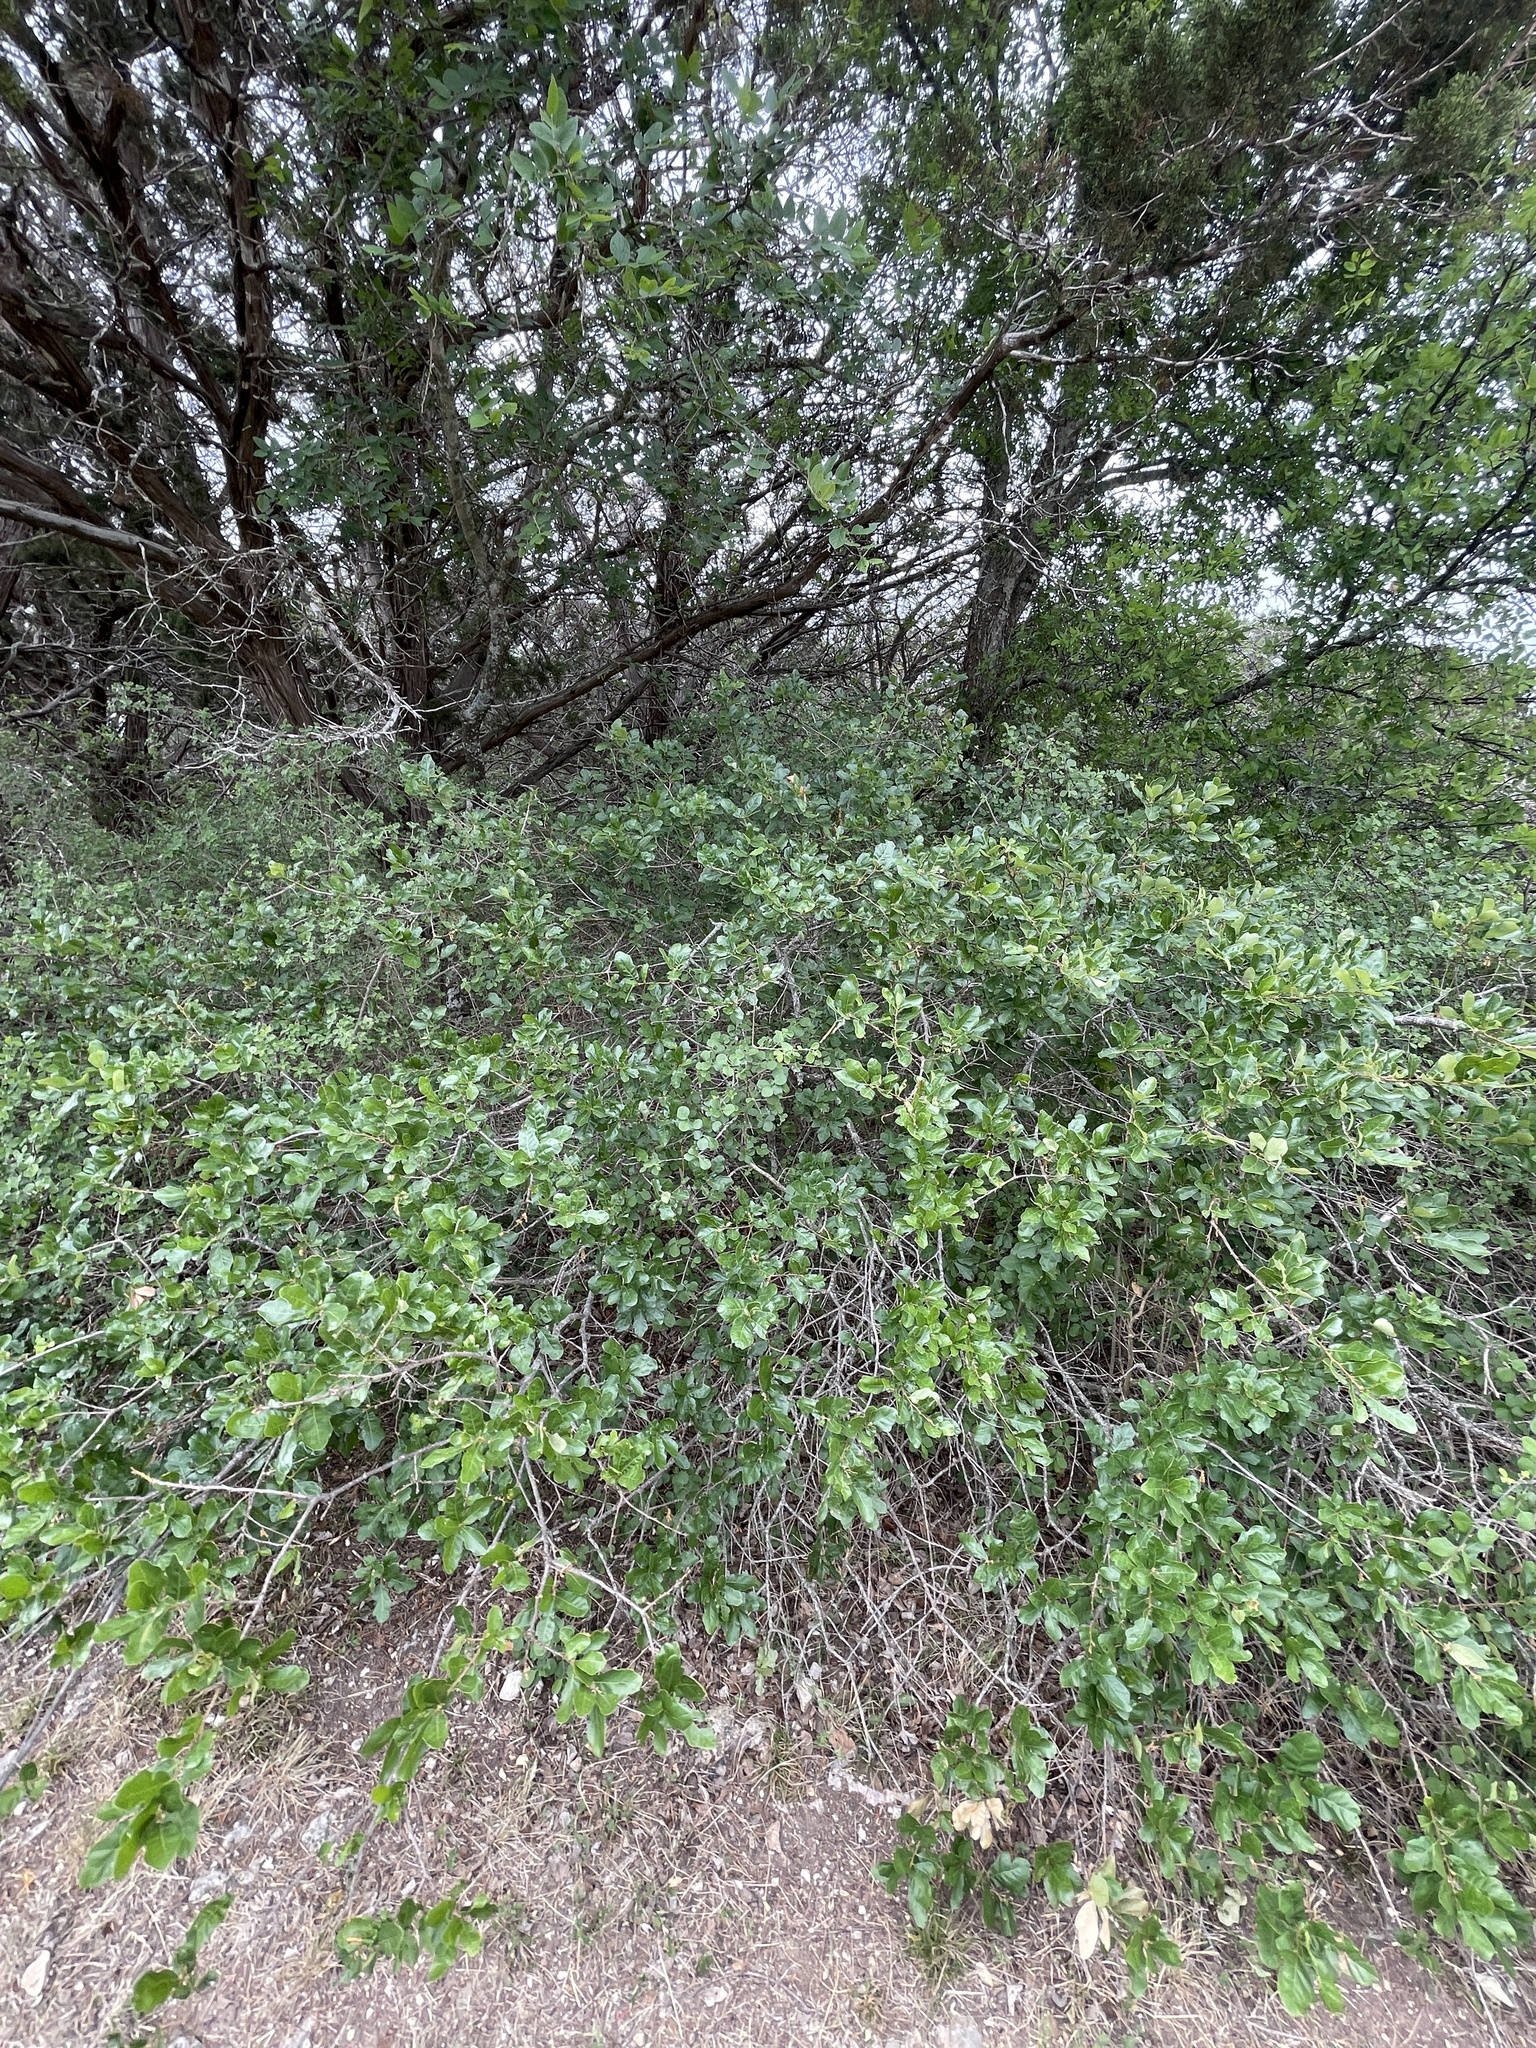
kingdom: Plantae
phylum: Tracheophyta
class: Magnoliopsida
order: Fagales
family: Fagaceae
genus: Quercus
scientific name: Quercus sinuata
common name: Durand oak
